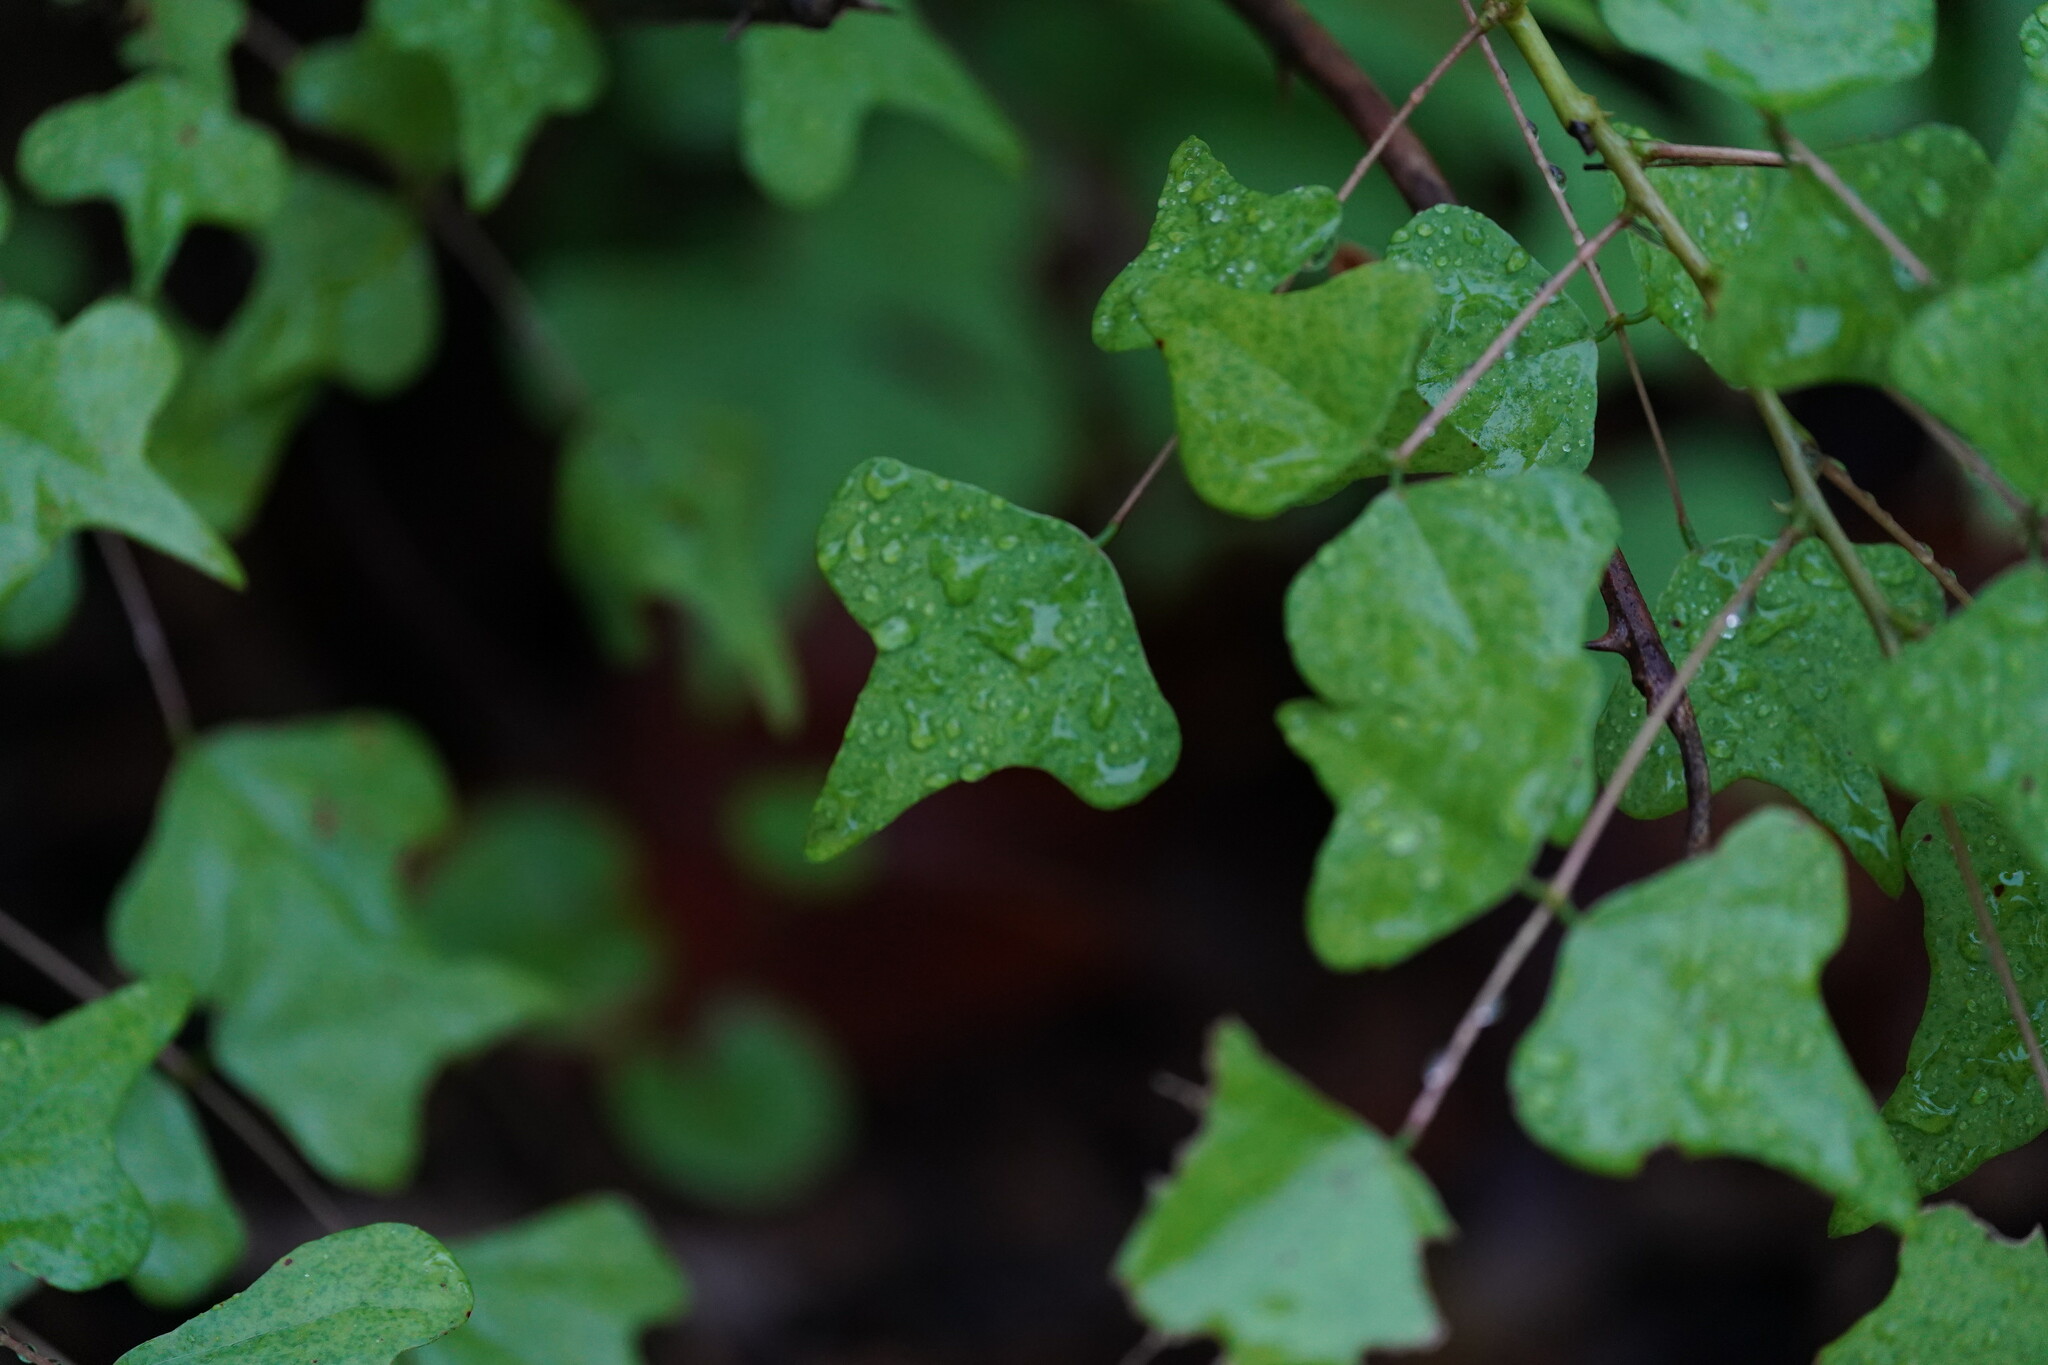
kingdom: Plantae
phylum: Tracheophyta
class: Magnoliopsida
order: Fabales
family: Fabaceae
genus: Erythrina
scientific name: Erythrina herbacea
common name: Coral-bean
